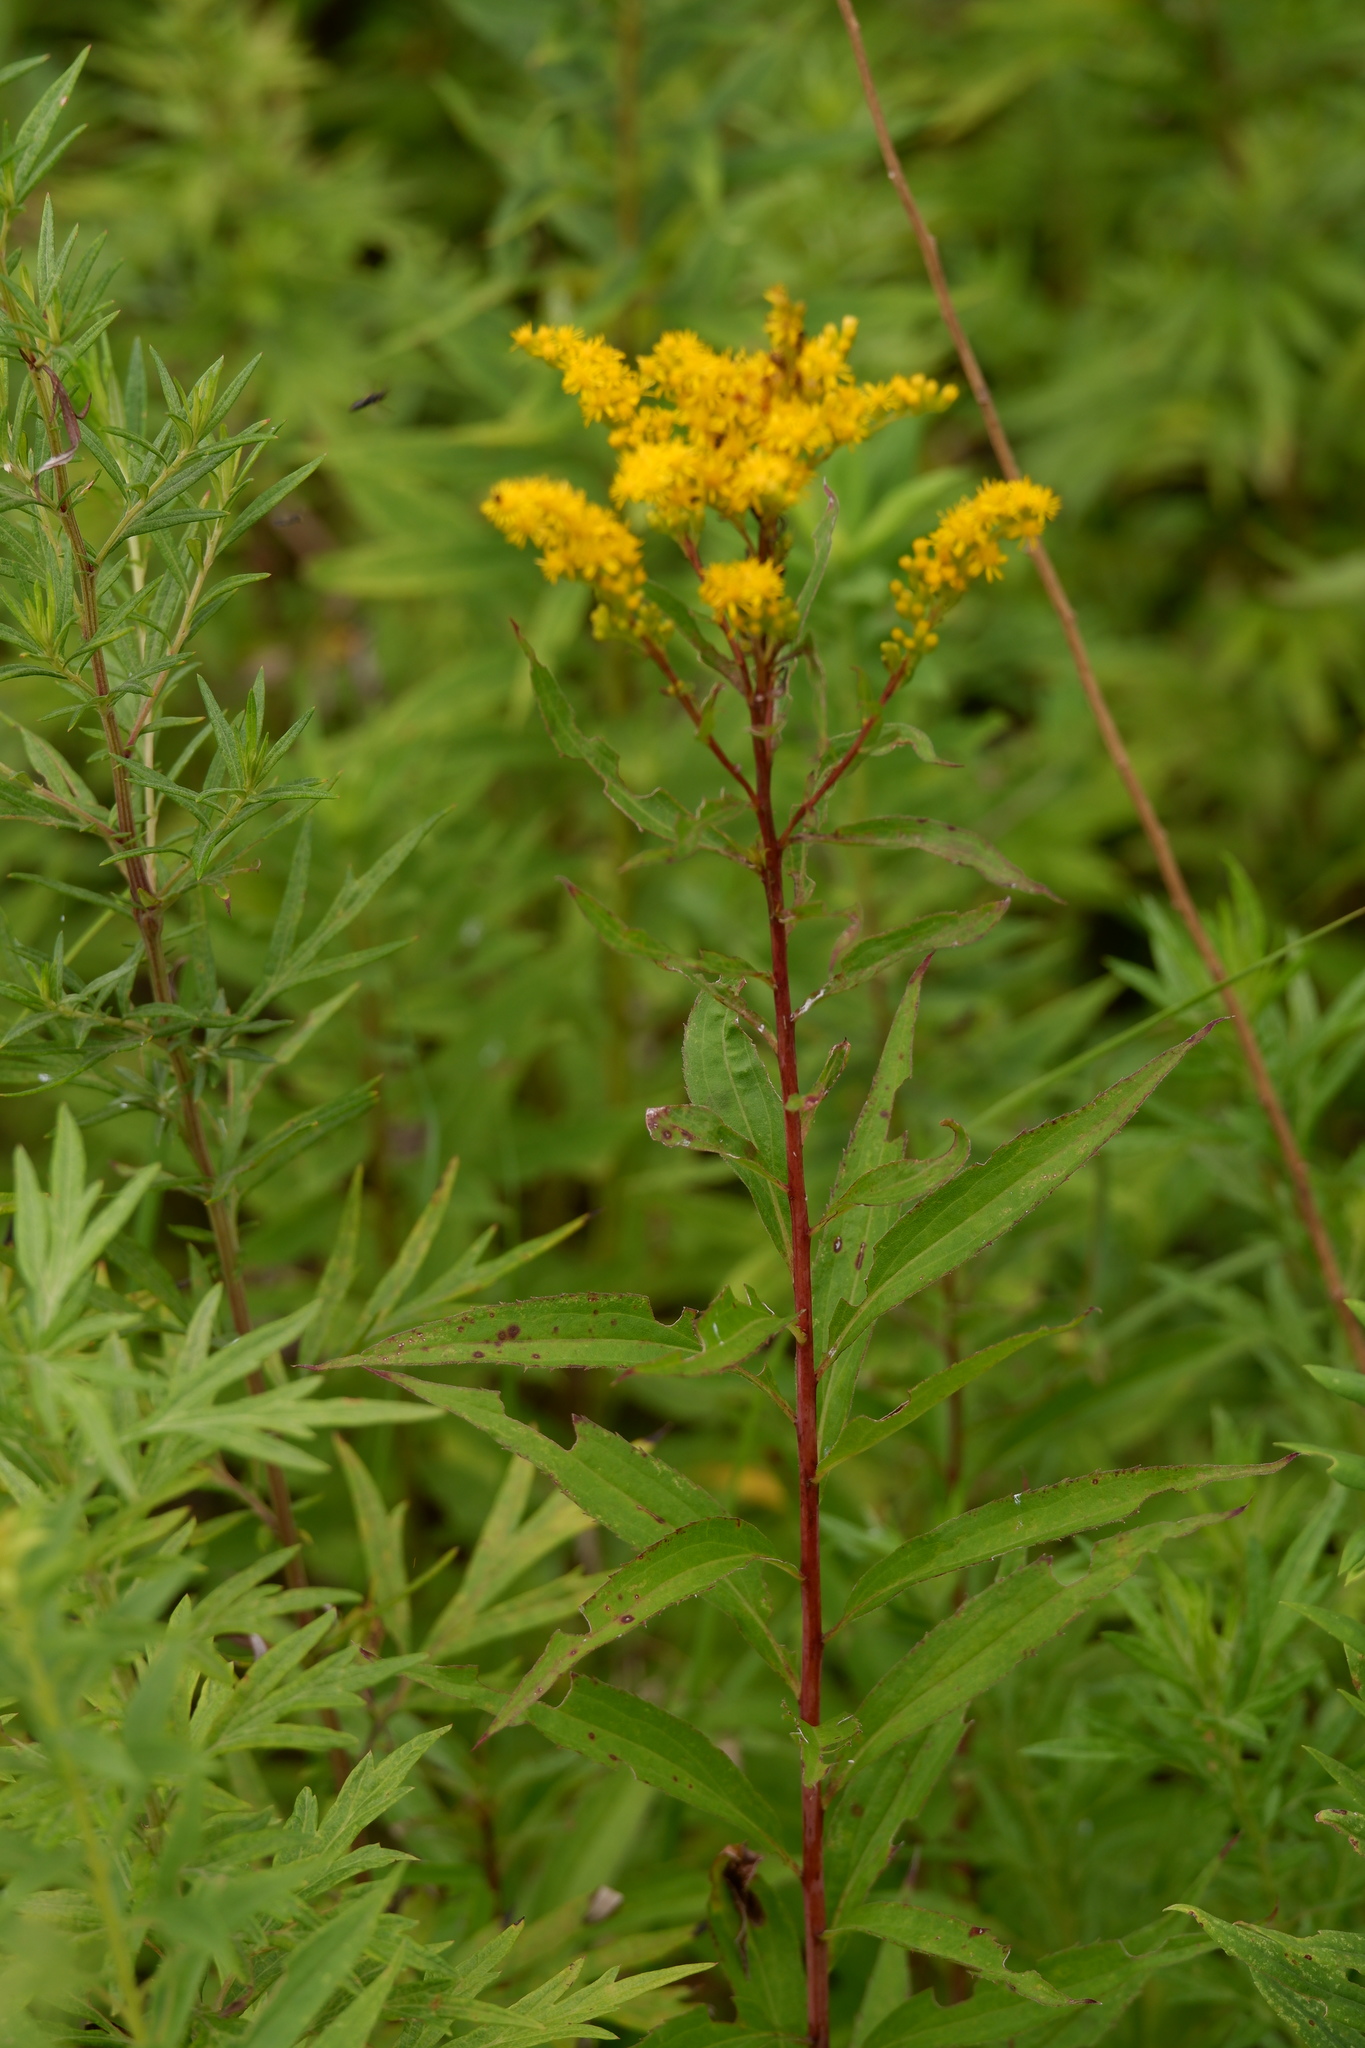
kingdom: Plantae
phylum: Tracheophyta
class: Magnoliopsida
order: Asterales
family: Asteraceae
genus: Solidago
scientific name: Solidago juncea
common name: Early goldenrod
